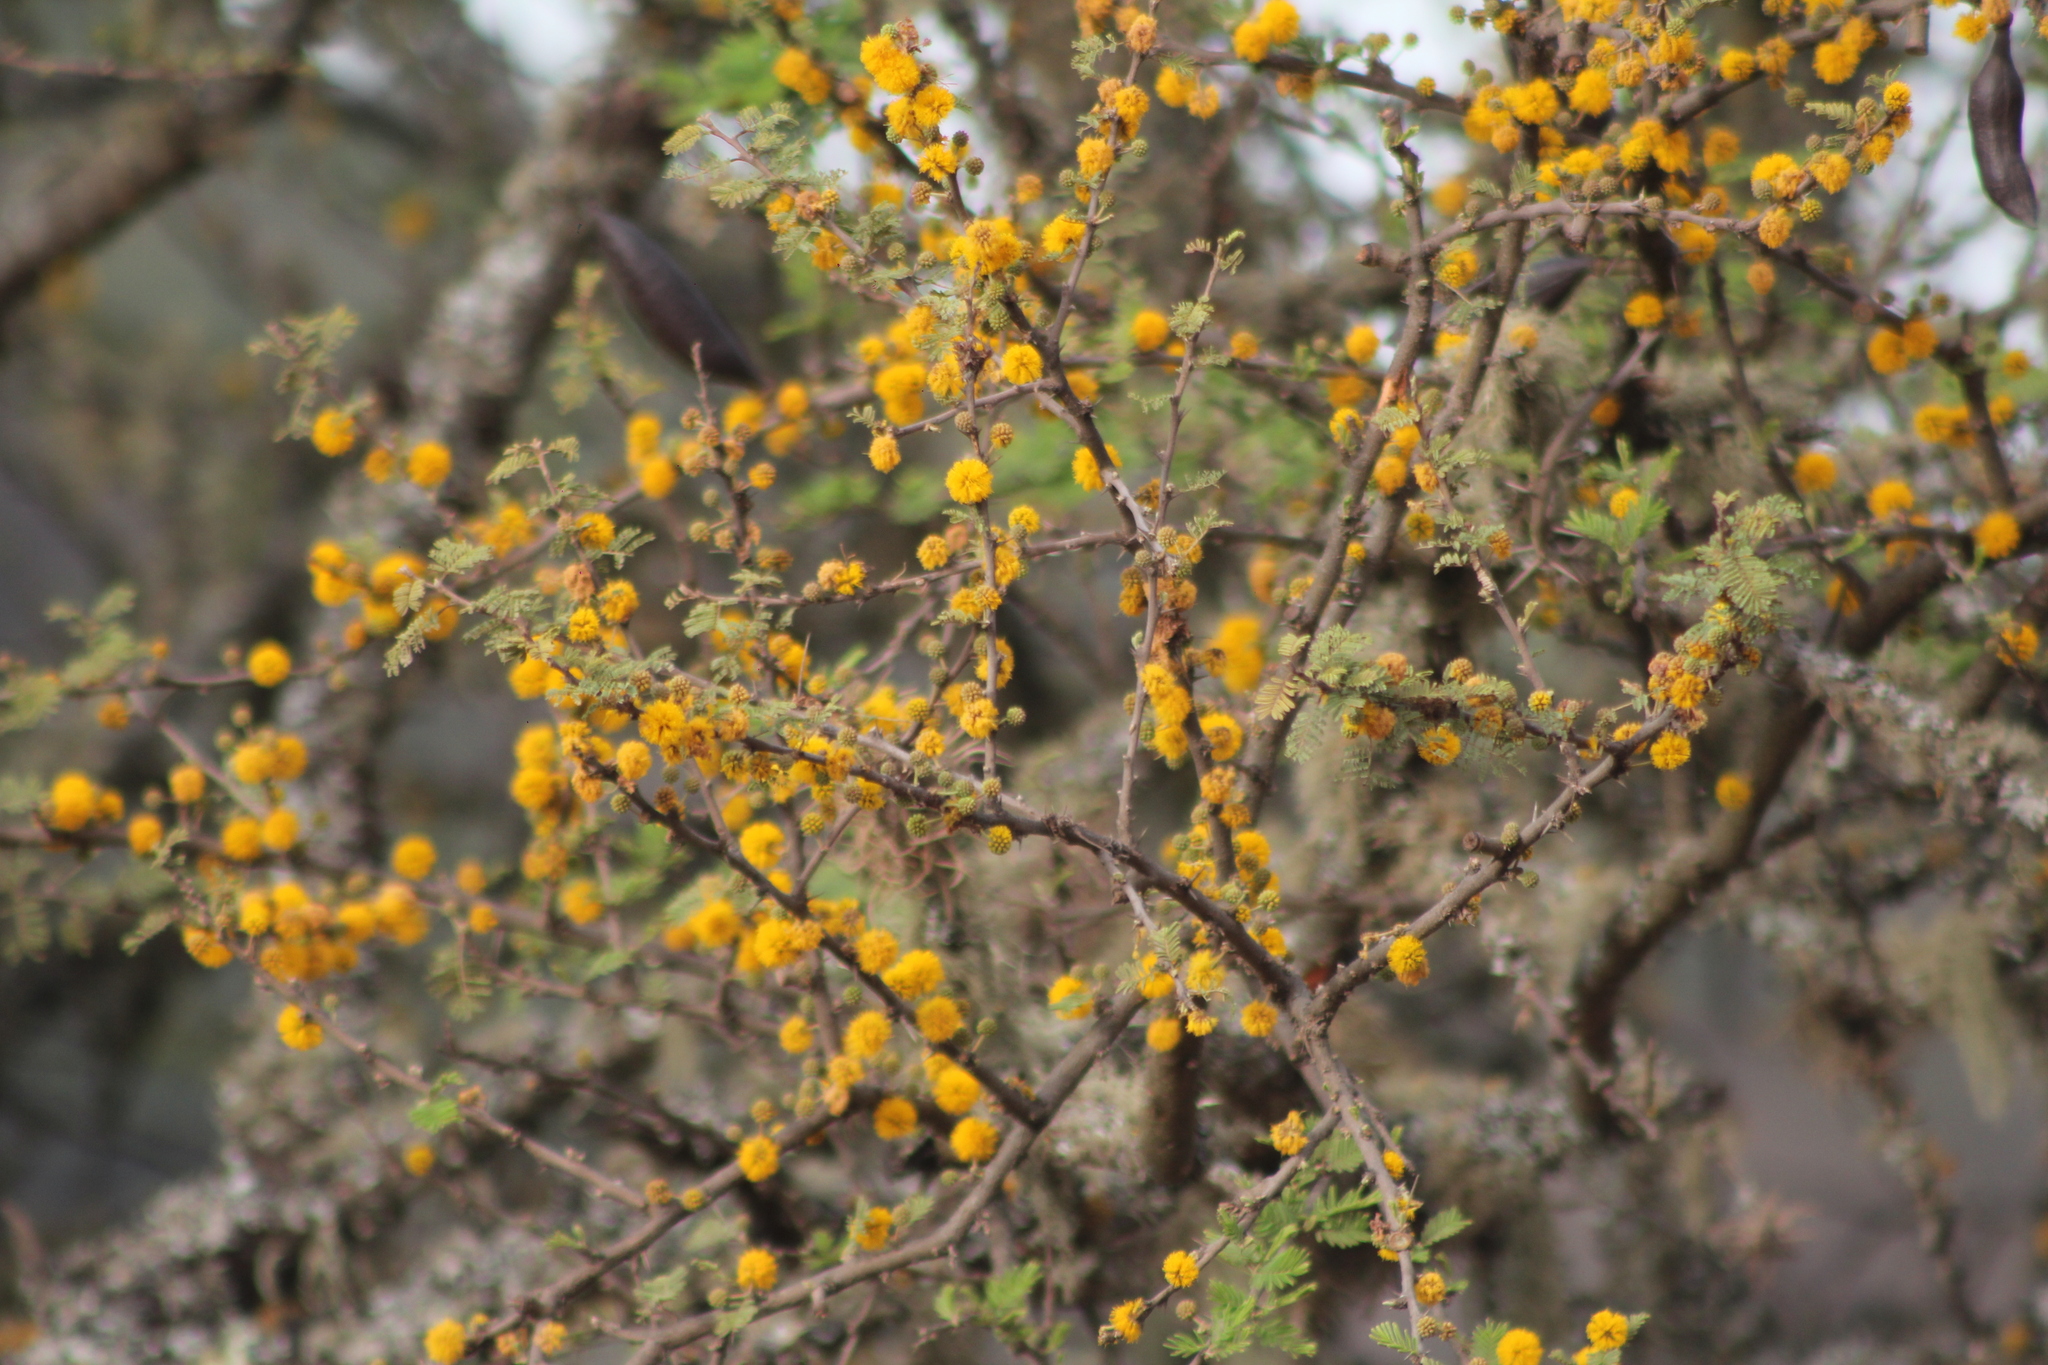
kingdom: Plantae
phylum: Tracheophyta
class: Magnoliopsida
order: Fabales
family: Fabaceae
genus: Vachellia
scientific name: Vachellia caven
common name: Roman cassie
